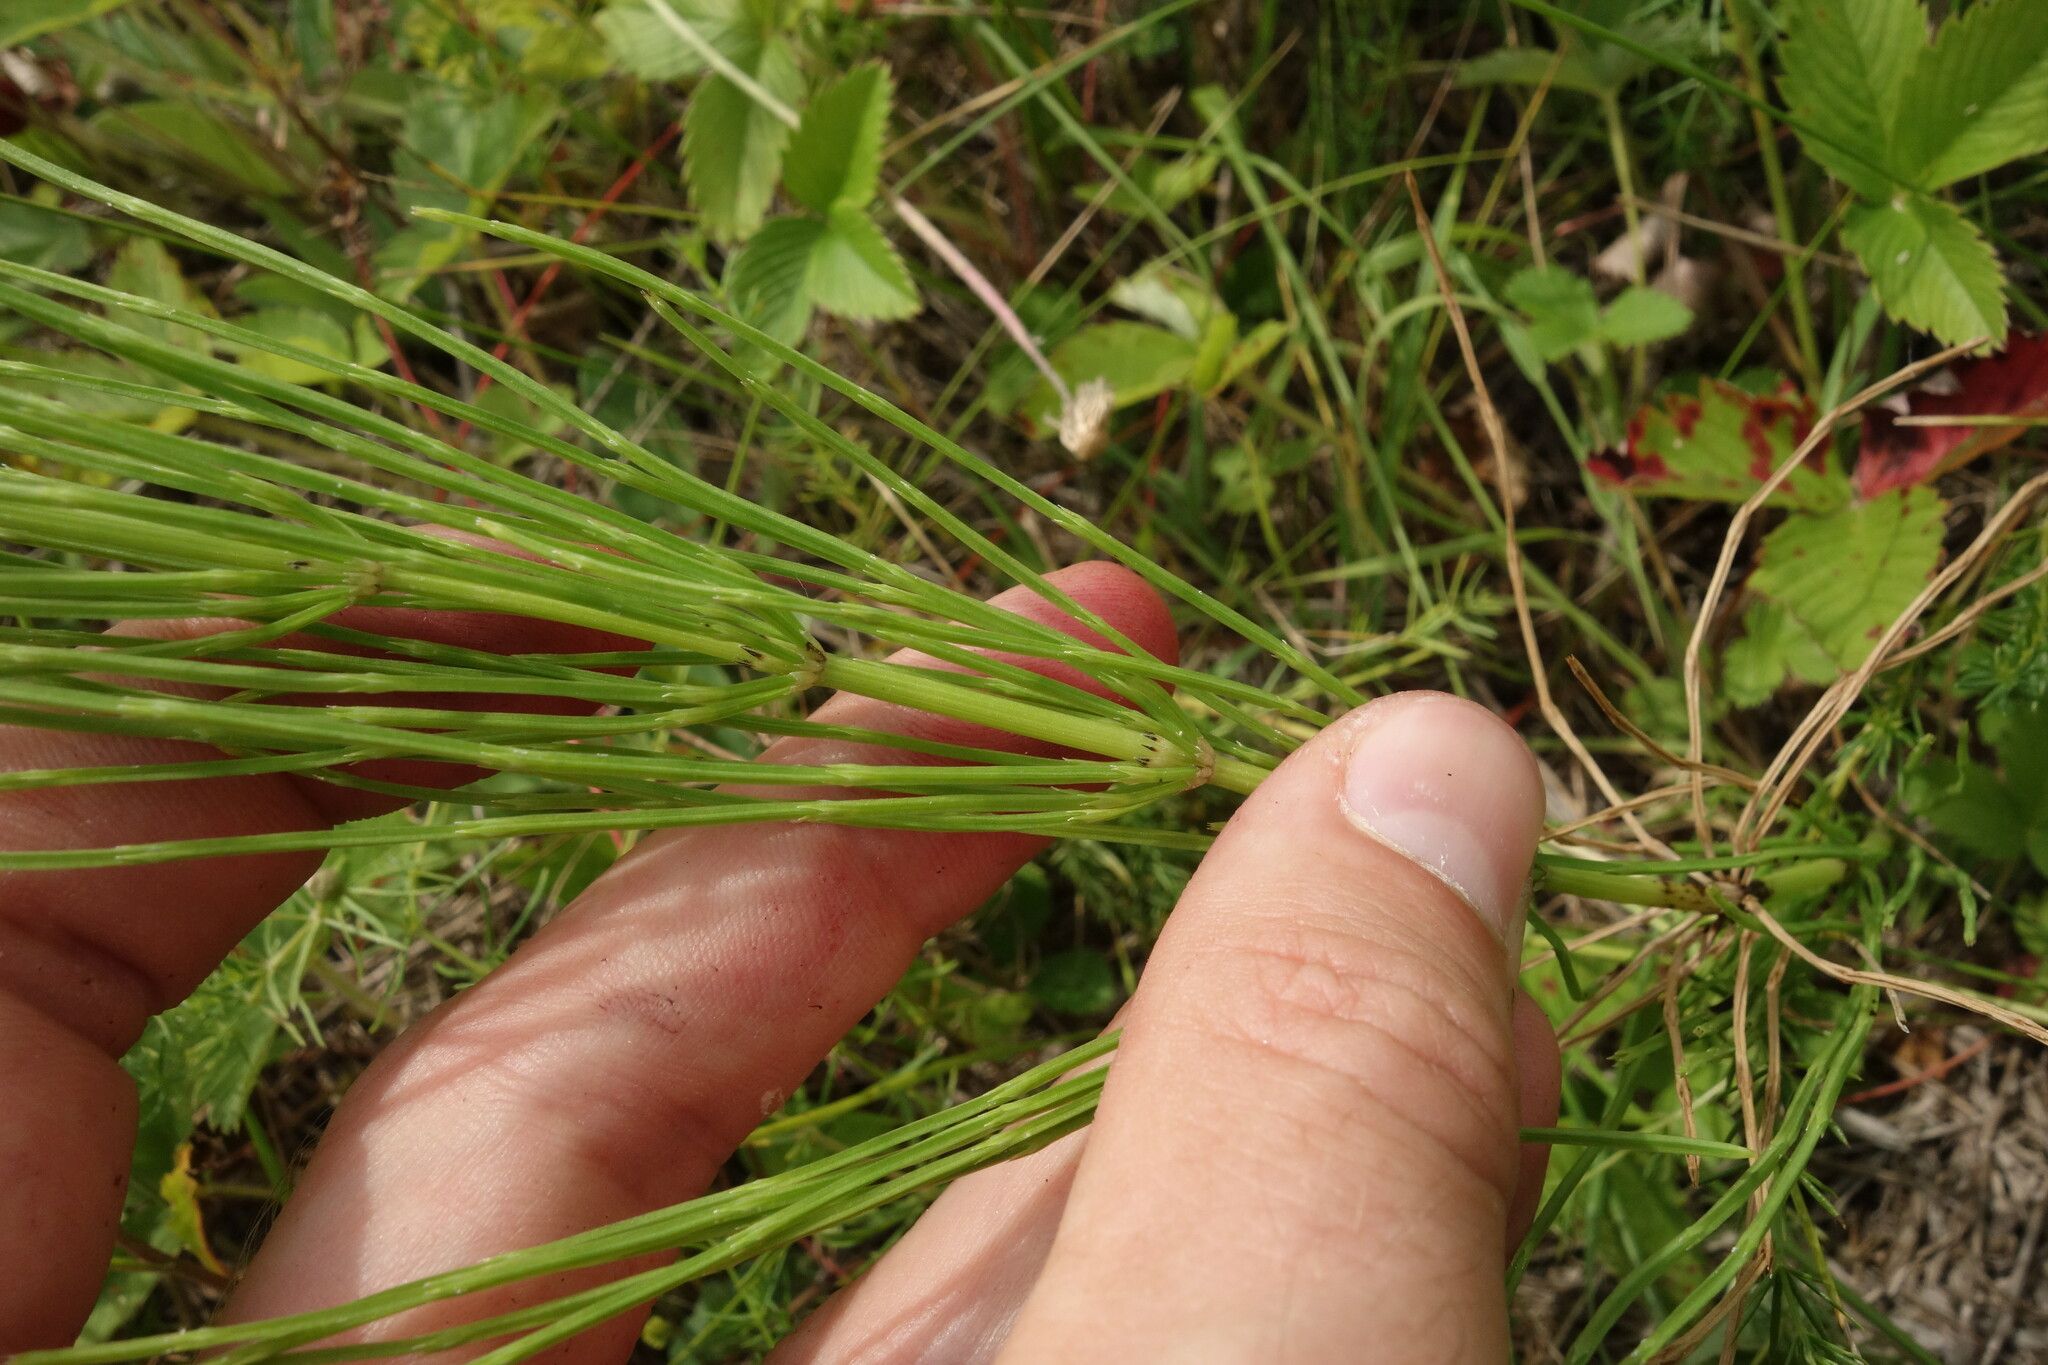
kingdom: Plantae
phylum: Tracheophyta
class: Polypodiopsida
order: Equisetales
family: Equisetaceae
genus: Equisetum
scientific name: Equisetum arvense
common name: Field horsetail
